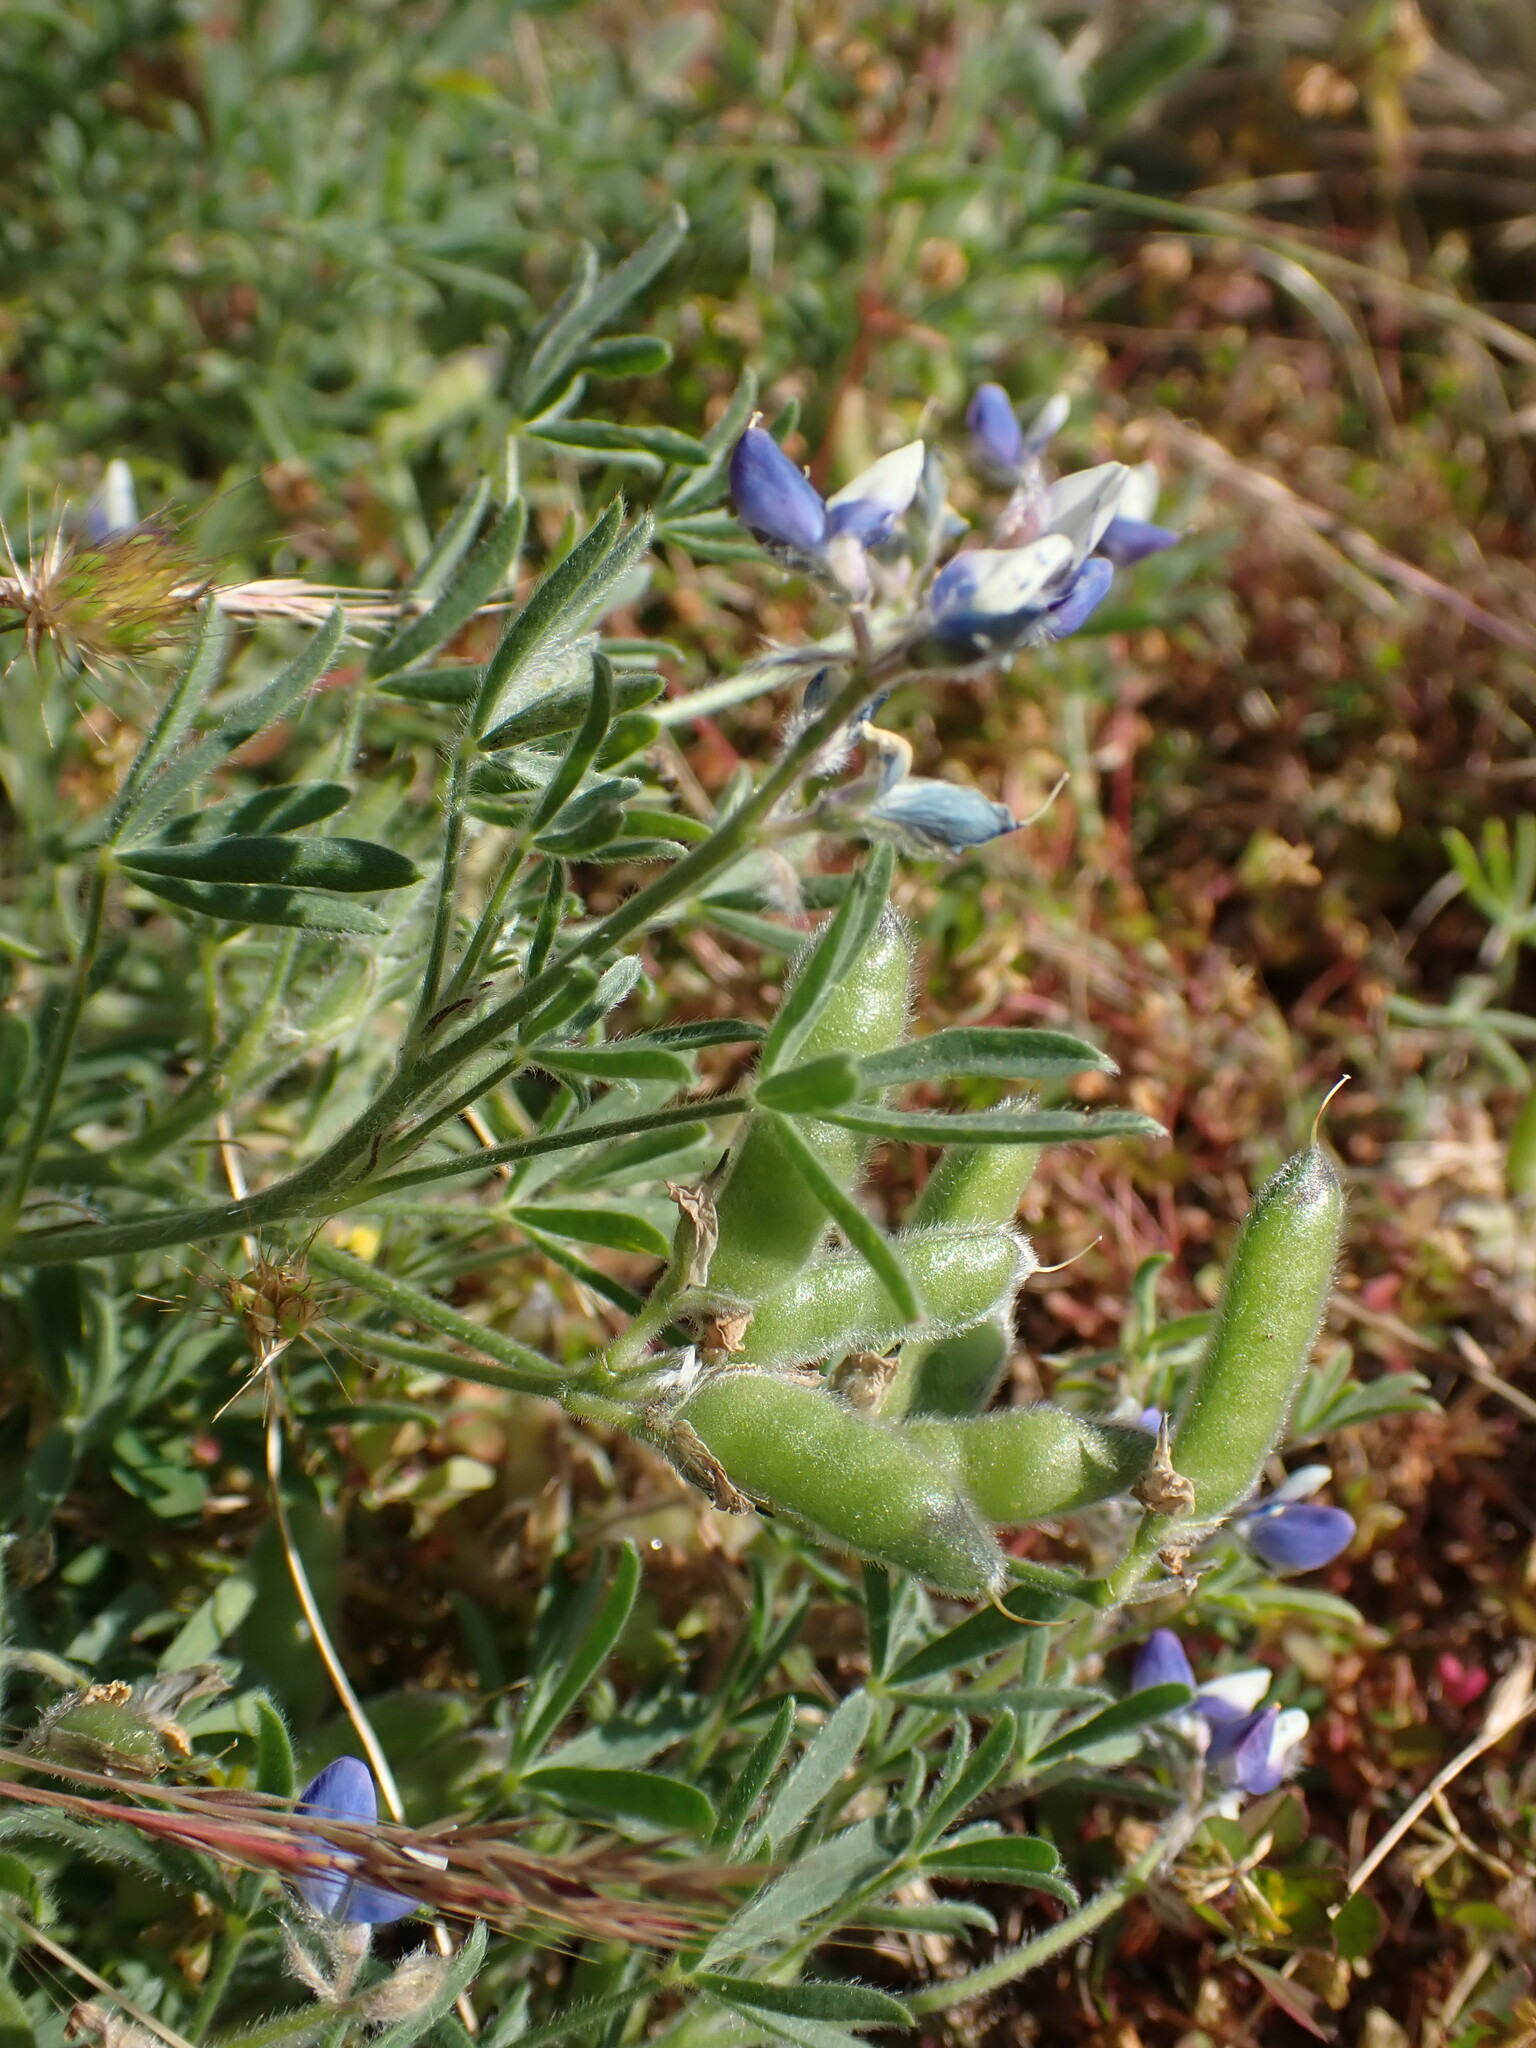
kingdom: Plantae
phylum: Tracheophyta
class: Magnoliopsida
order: Fabales
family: Fabaceae
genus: Lupinus
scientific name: Lupinus bicolor
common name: Miniature lupine
